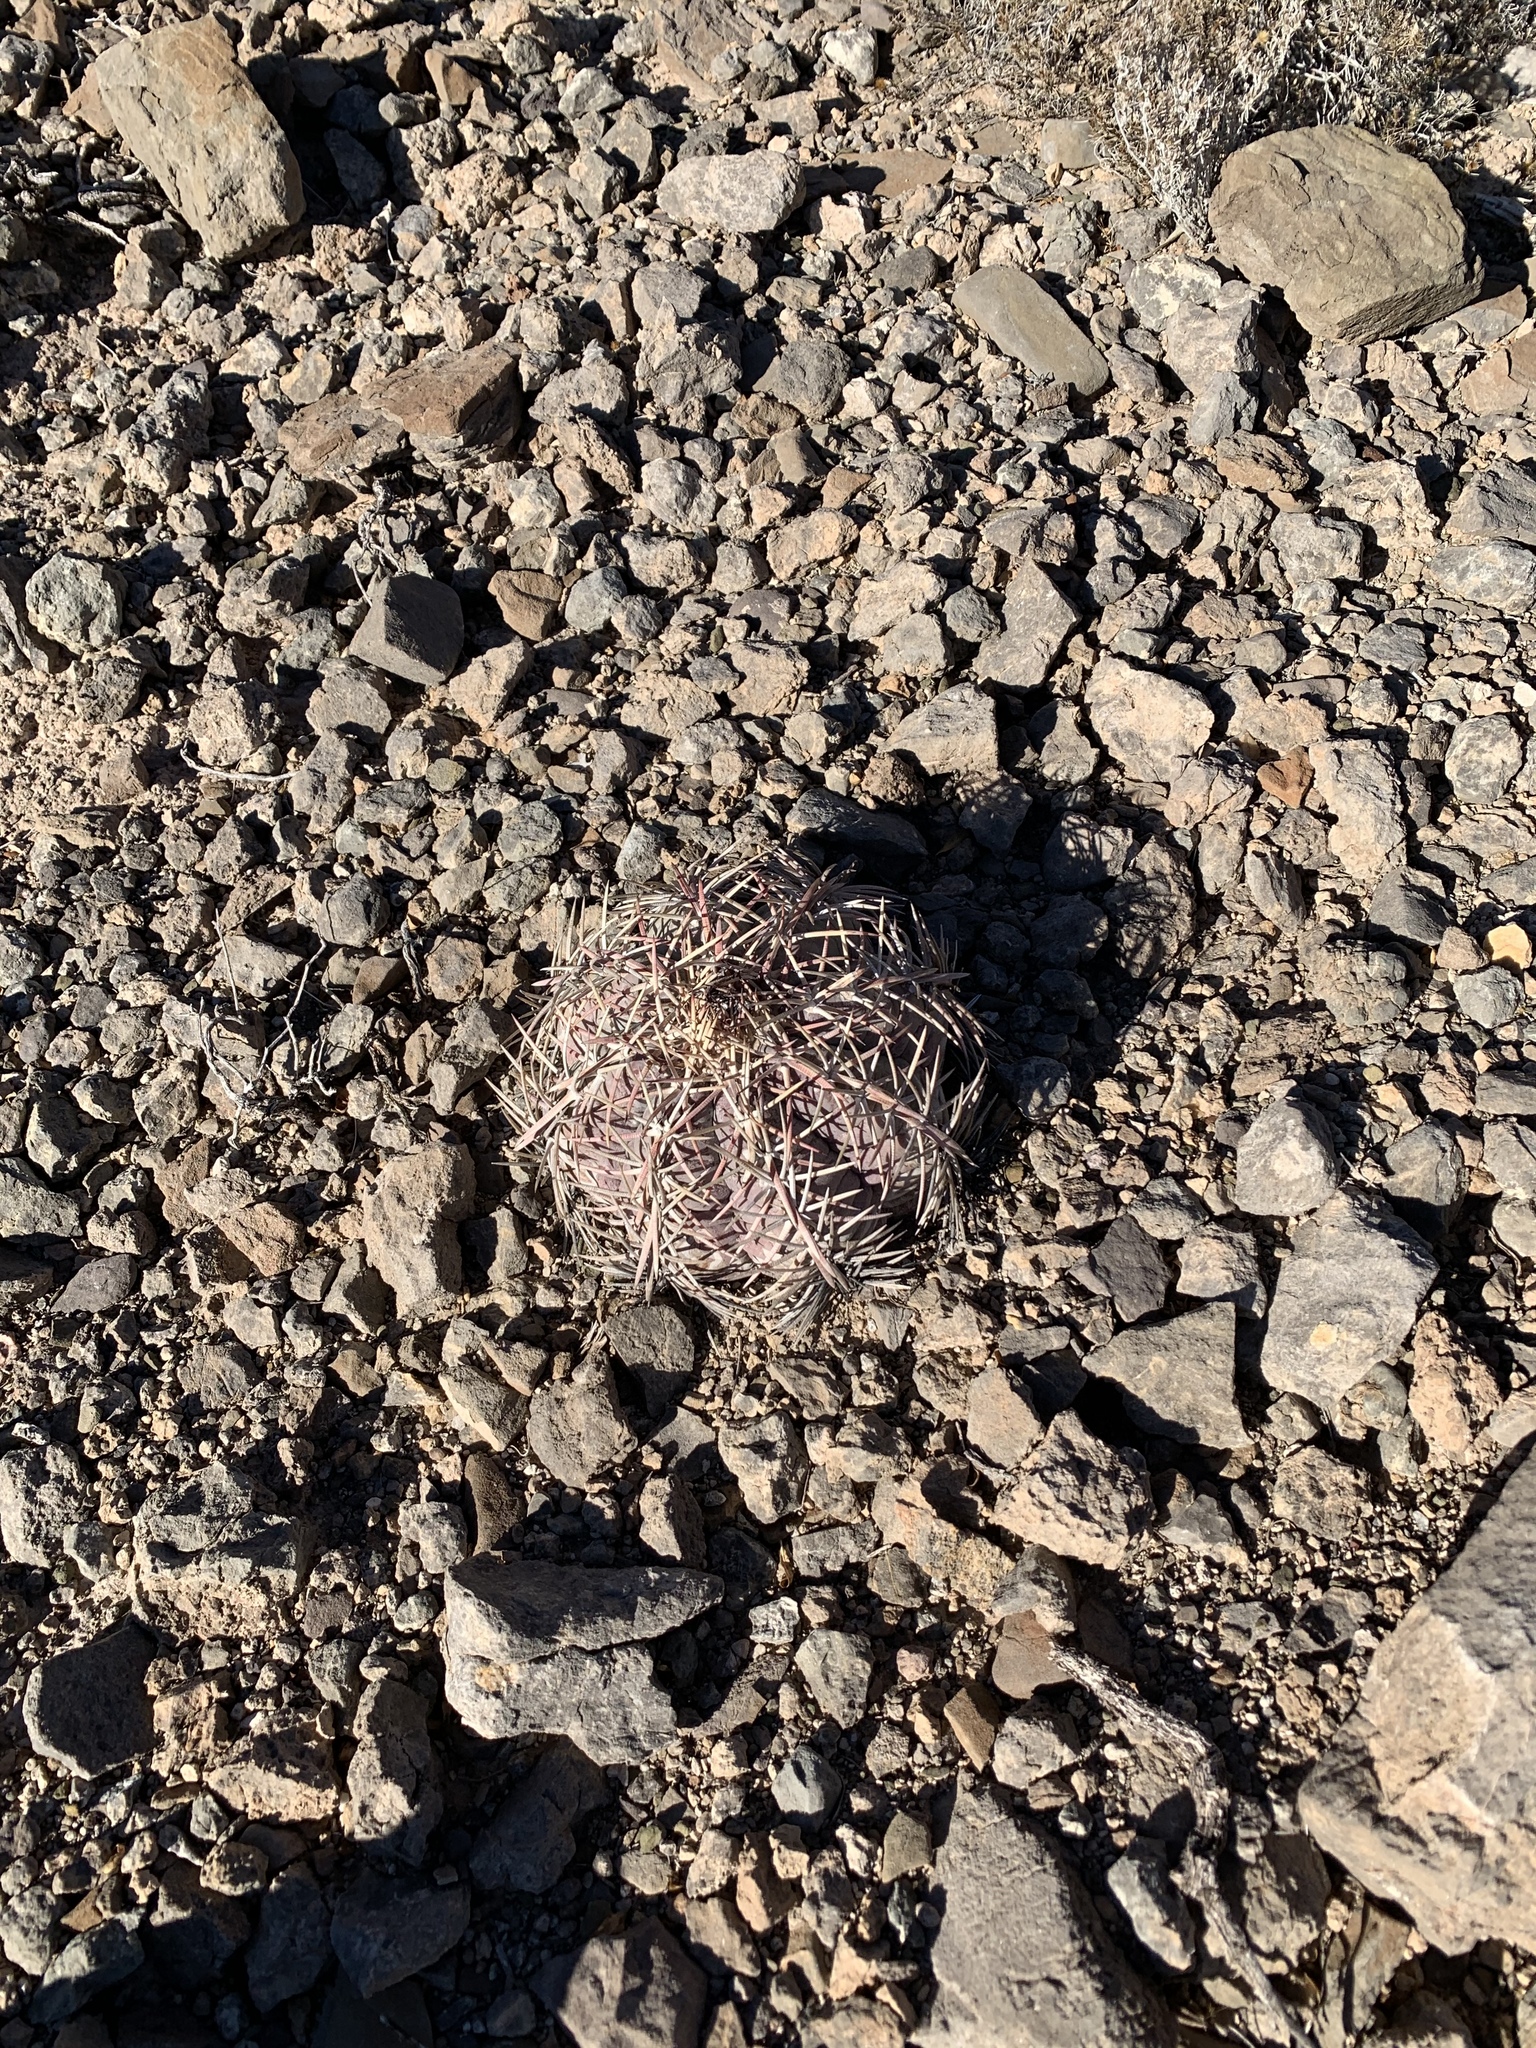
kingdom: Plantae
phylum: Tracheophyta
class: Magnoliopsida
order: Caryophyllales
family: Cactaceae
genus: Echinocactus
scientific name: Echinocactus horizonthalonius
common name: Devilshead
